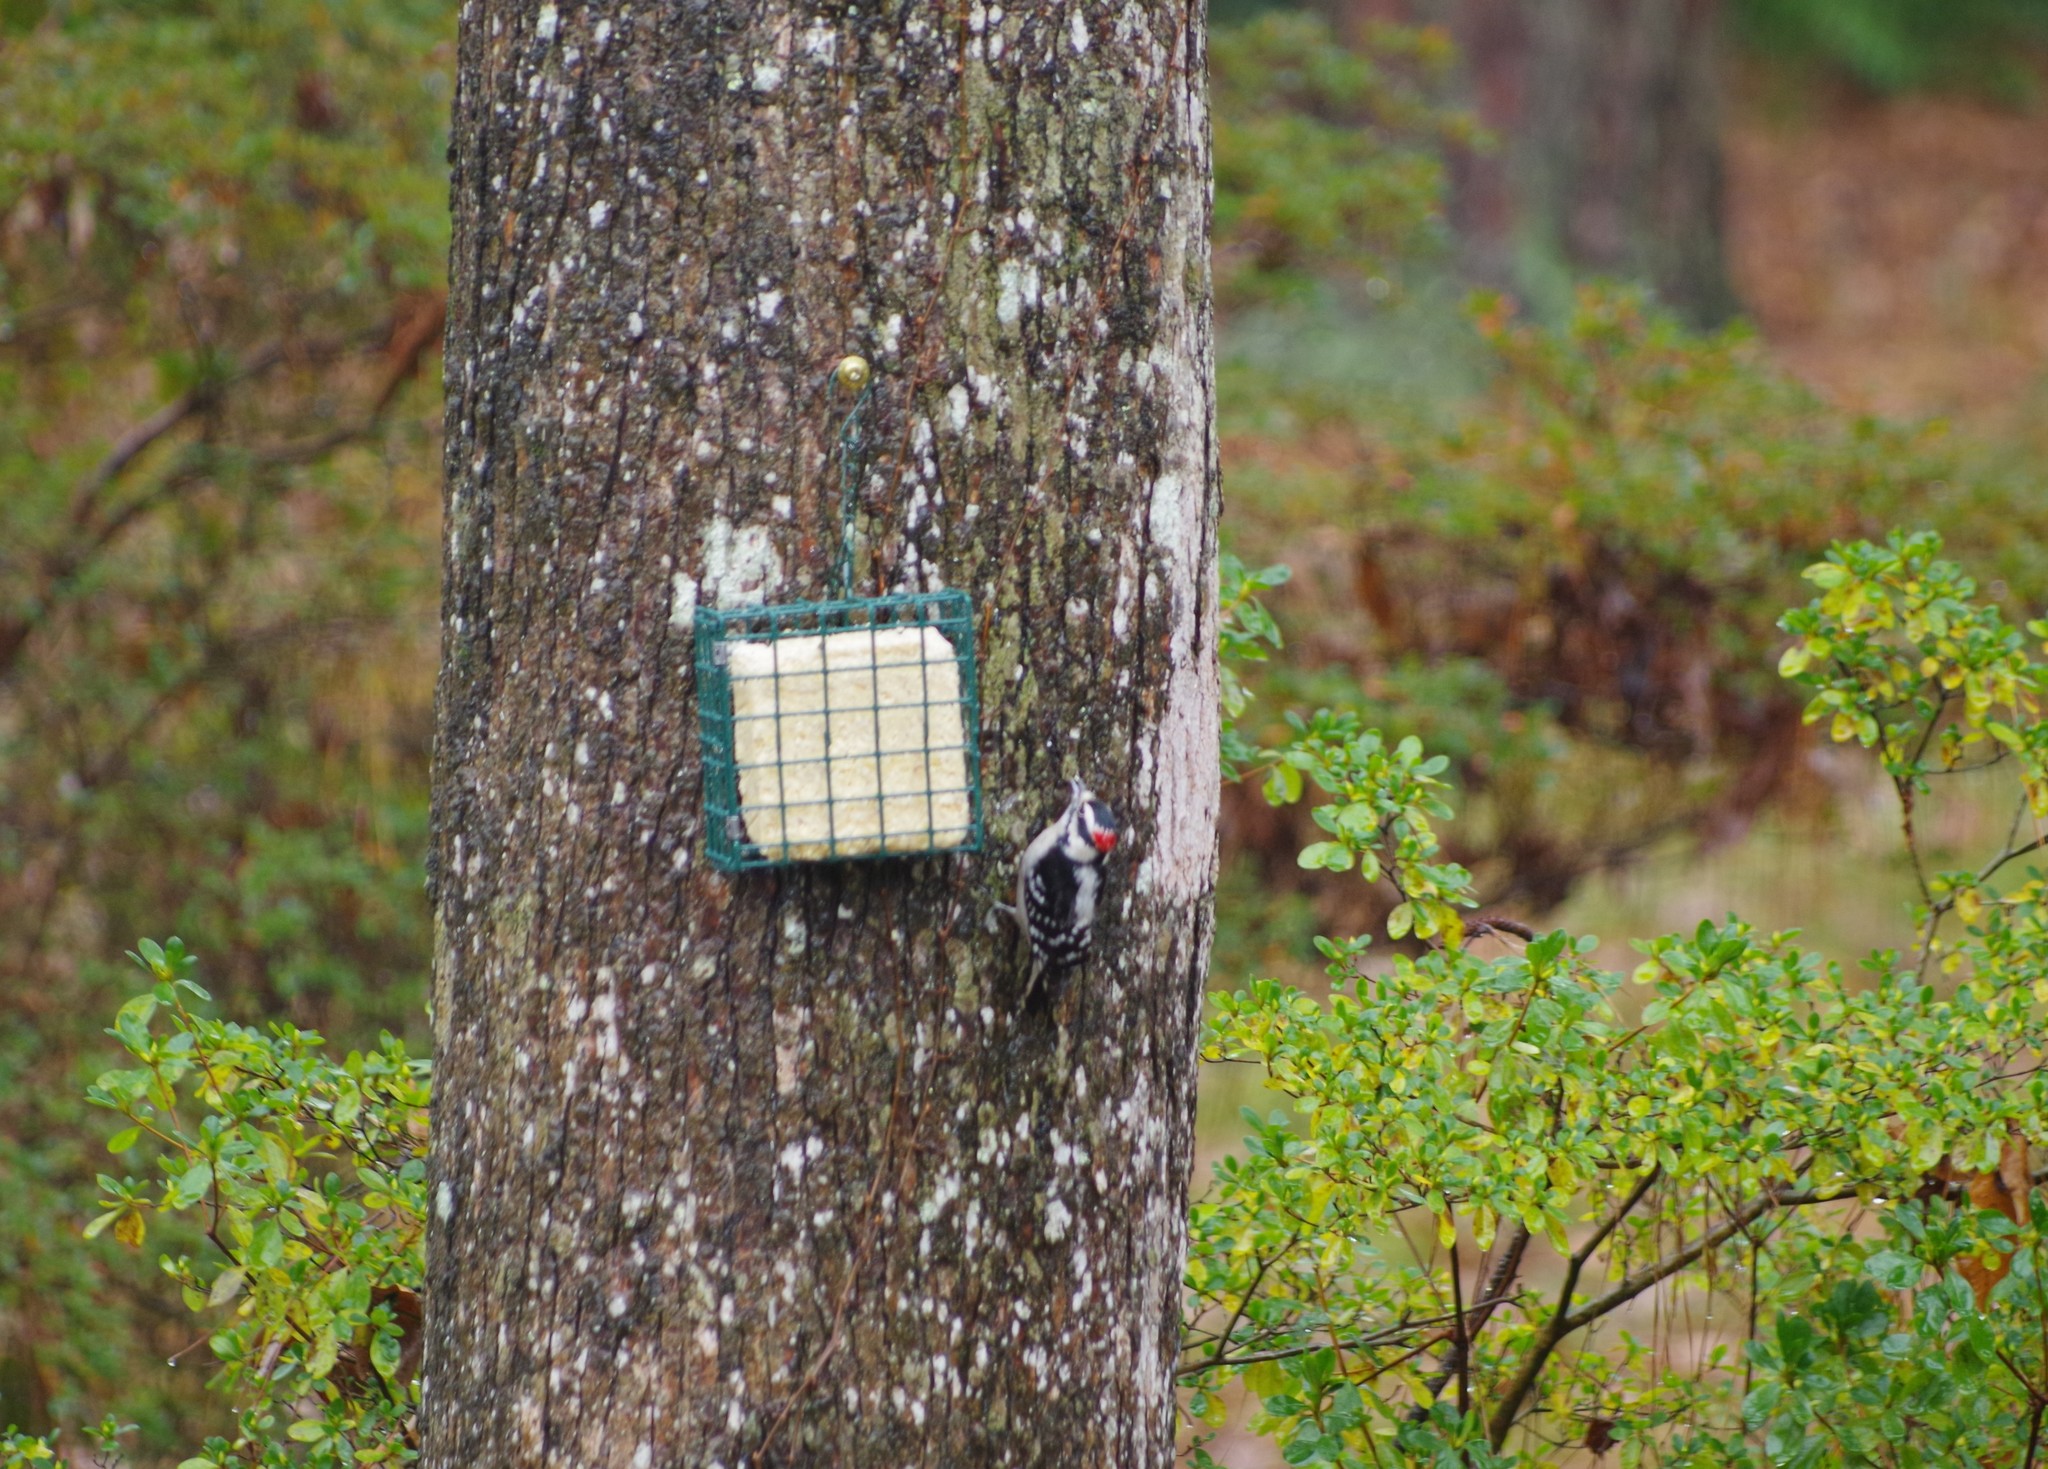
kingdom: Animalia
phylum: Chordata
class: Aves
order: Piciformes
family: Picidae
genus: Dryobates
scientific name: Dryobates pubescens
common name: Downy woodpecker
